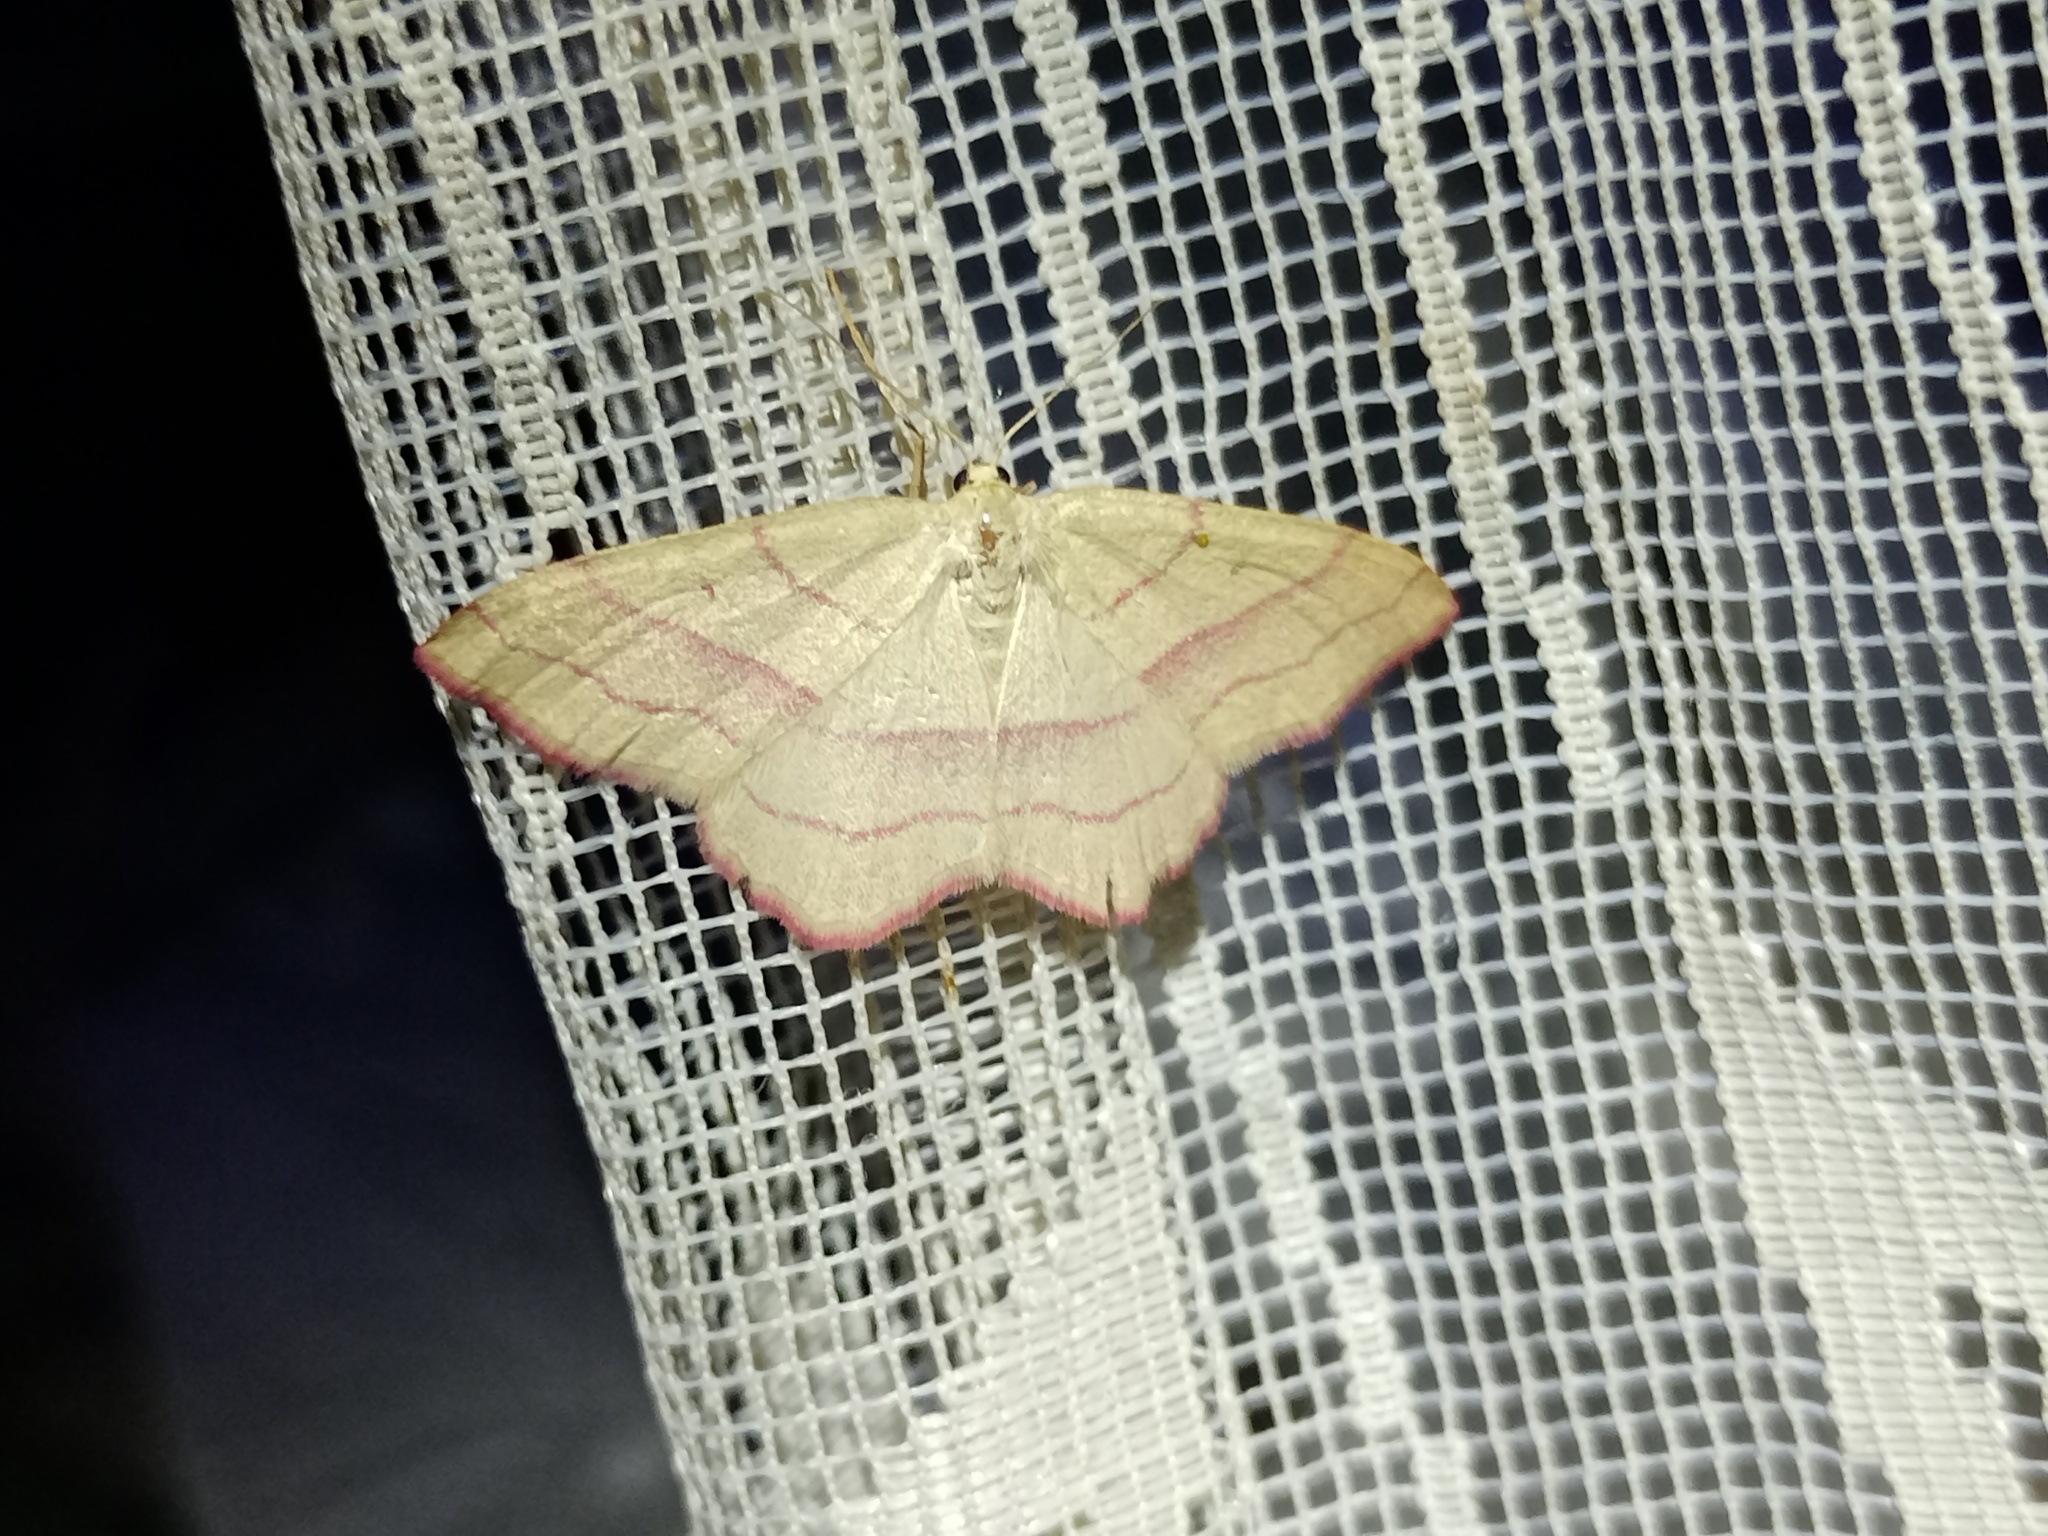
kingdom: Animalia
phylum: Arthropoda
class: Insecta
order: Lepidoptera
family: Geometridae
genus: Rhodostrophia
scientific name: Rhodostrophia vibicaria
